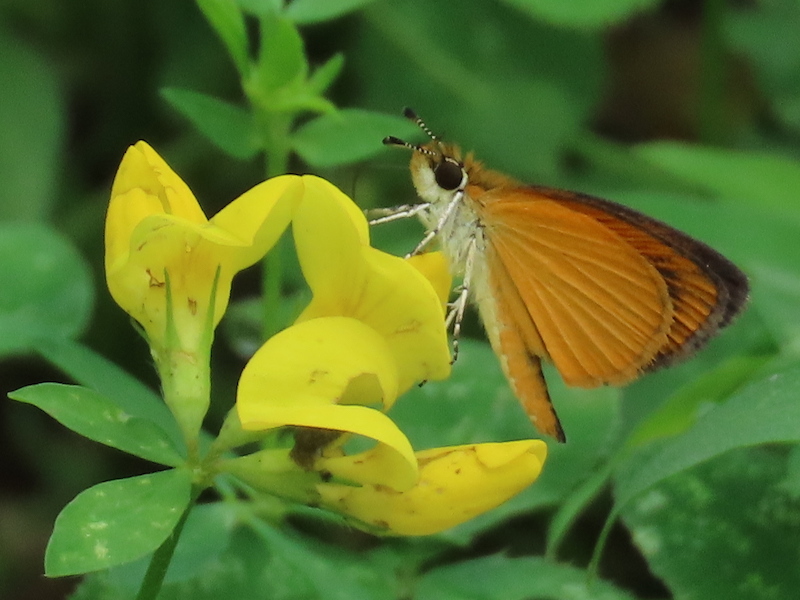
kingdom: Animalia
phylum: Arthropoda
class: Insecta
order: Lepidoptera
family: Hesperiidae
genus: Ancyloxypha
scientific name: Ancyloxypha numitor
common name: Least skipper
